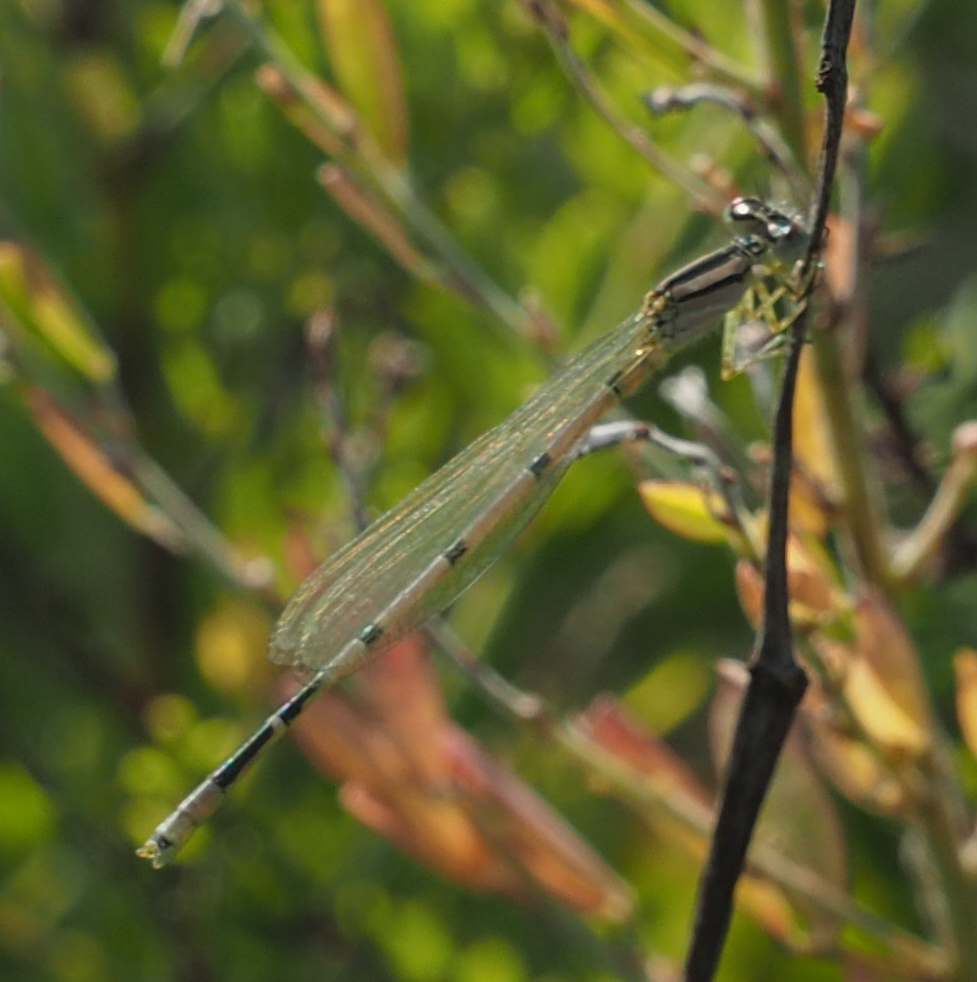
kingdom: Animalia
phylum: Arthropoda
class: Insecta
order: Odonata
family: Coenagrionidae
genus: Enallagma
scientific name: Enallagma civile
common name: Damselfly
